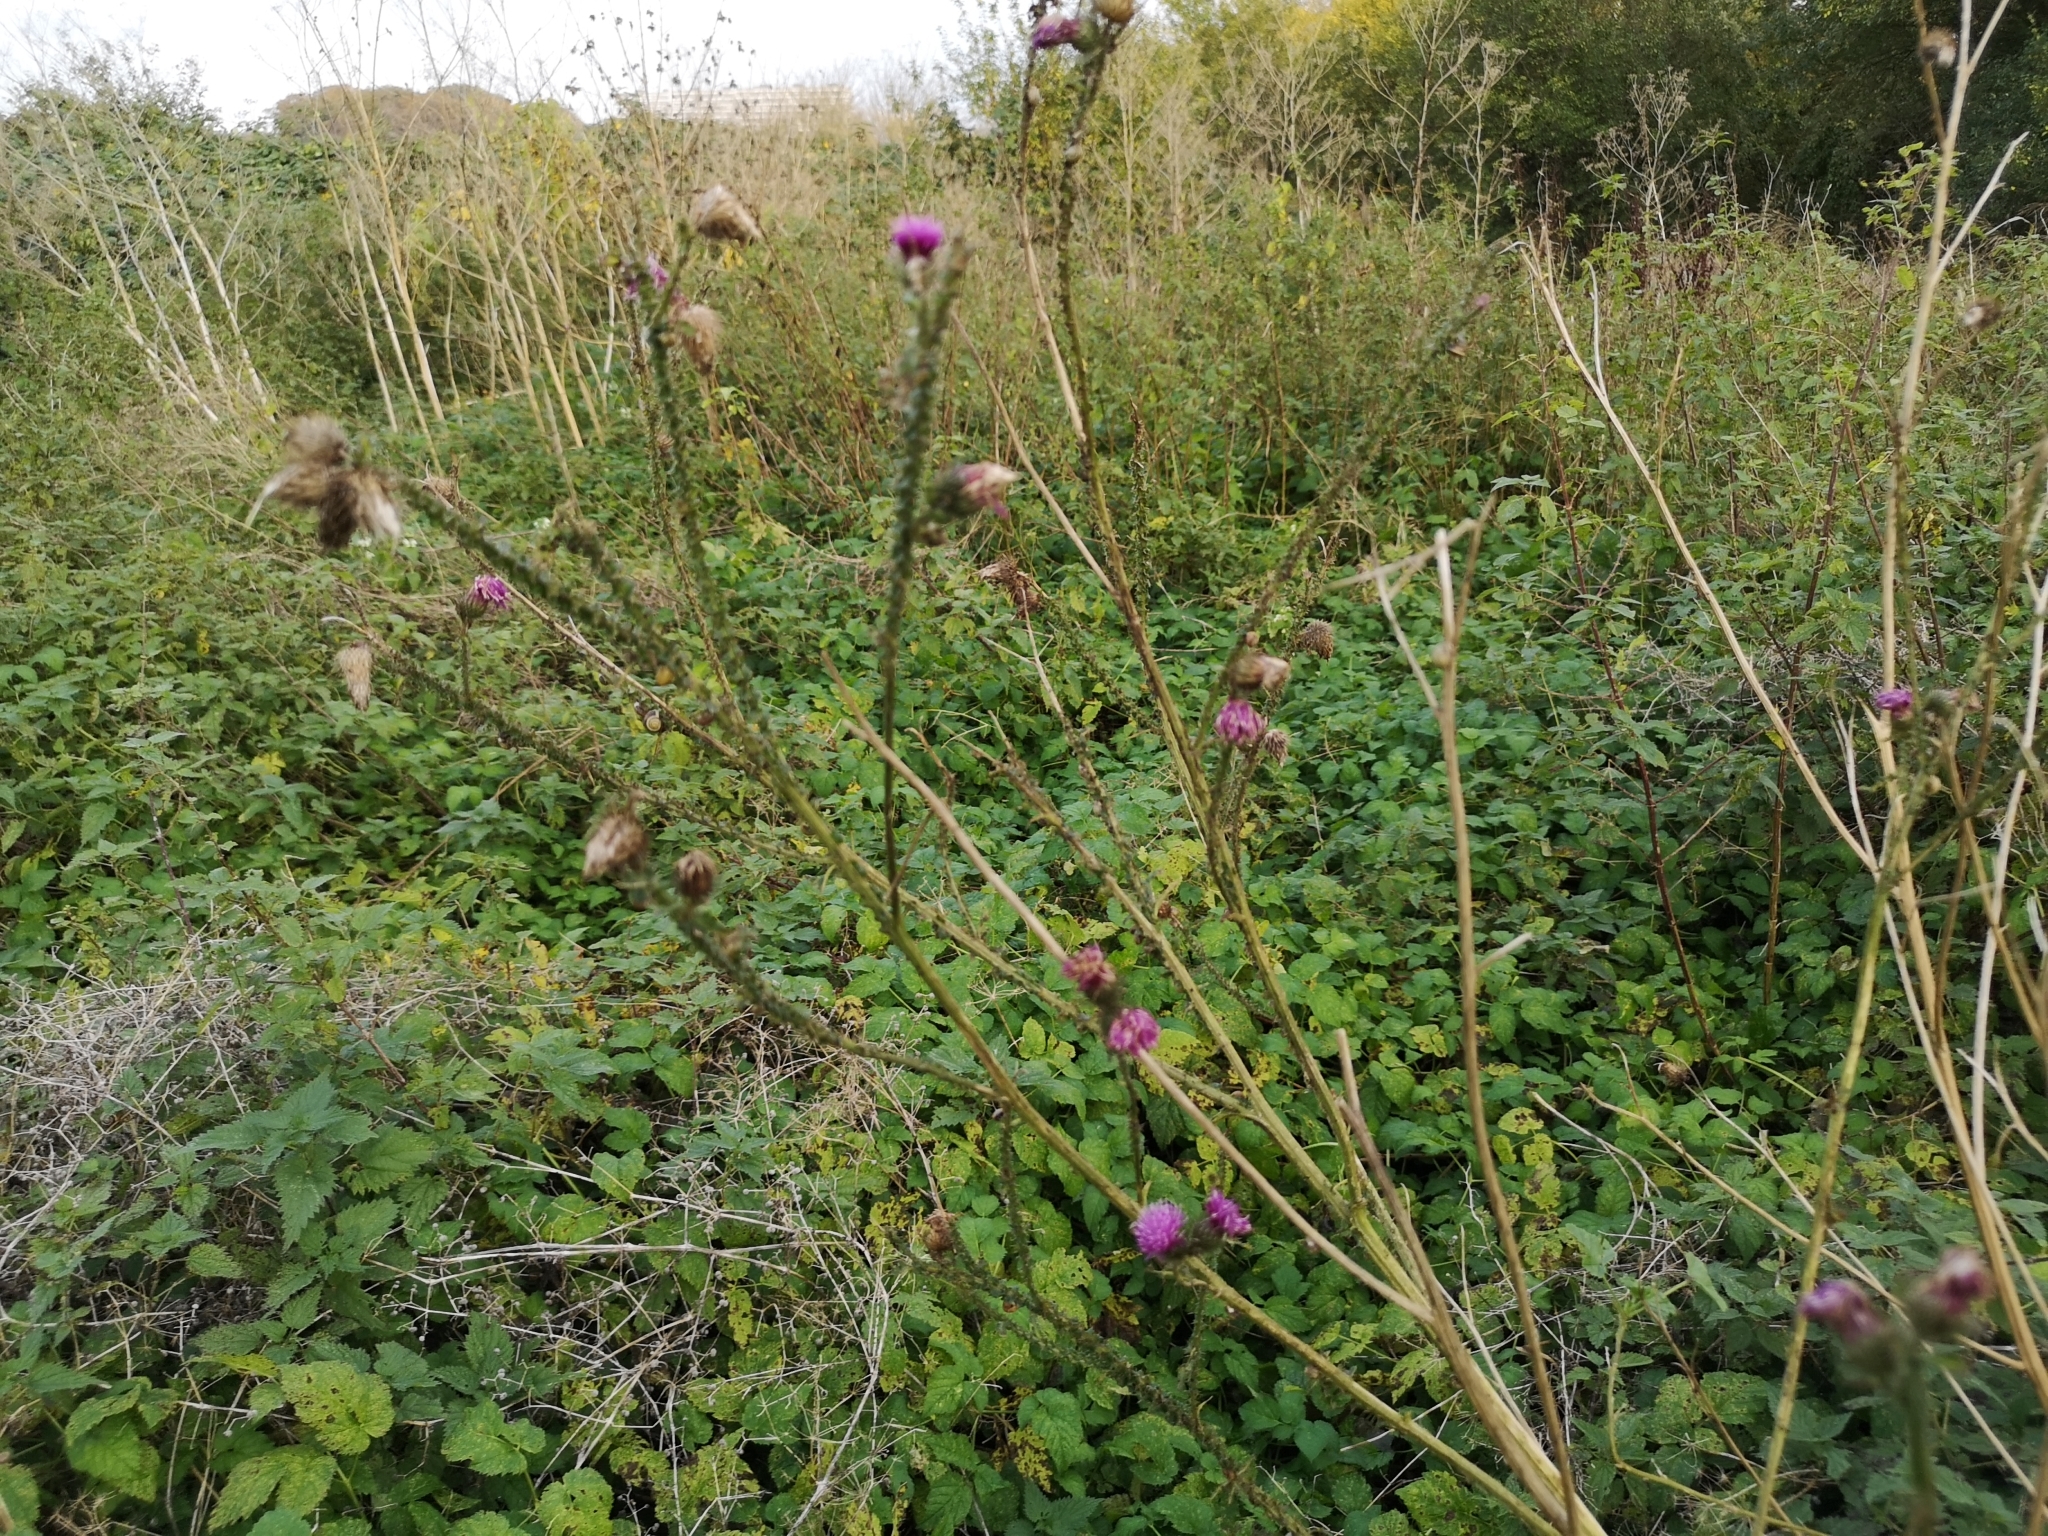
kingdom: Plantae
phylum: Tracheophyta
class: Magnoliopsida
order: Asterales
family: Asteraceae
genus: Carduus
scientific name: Carduus crispus
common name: Welted thistle
